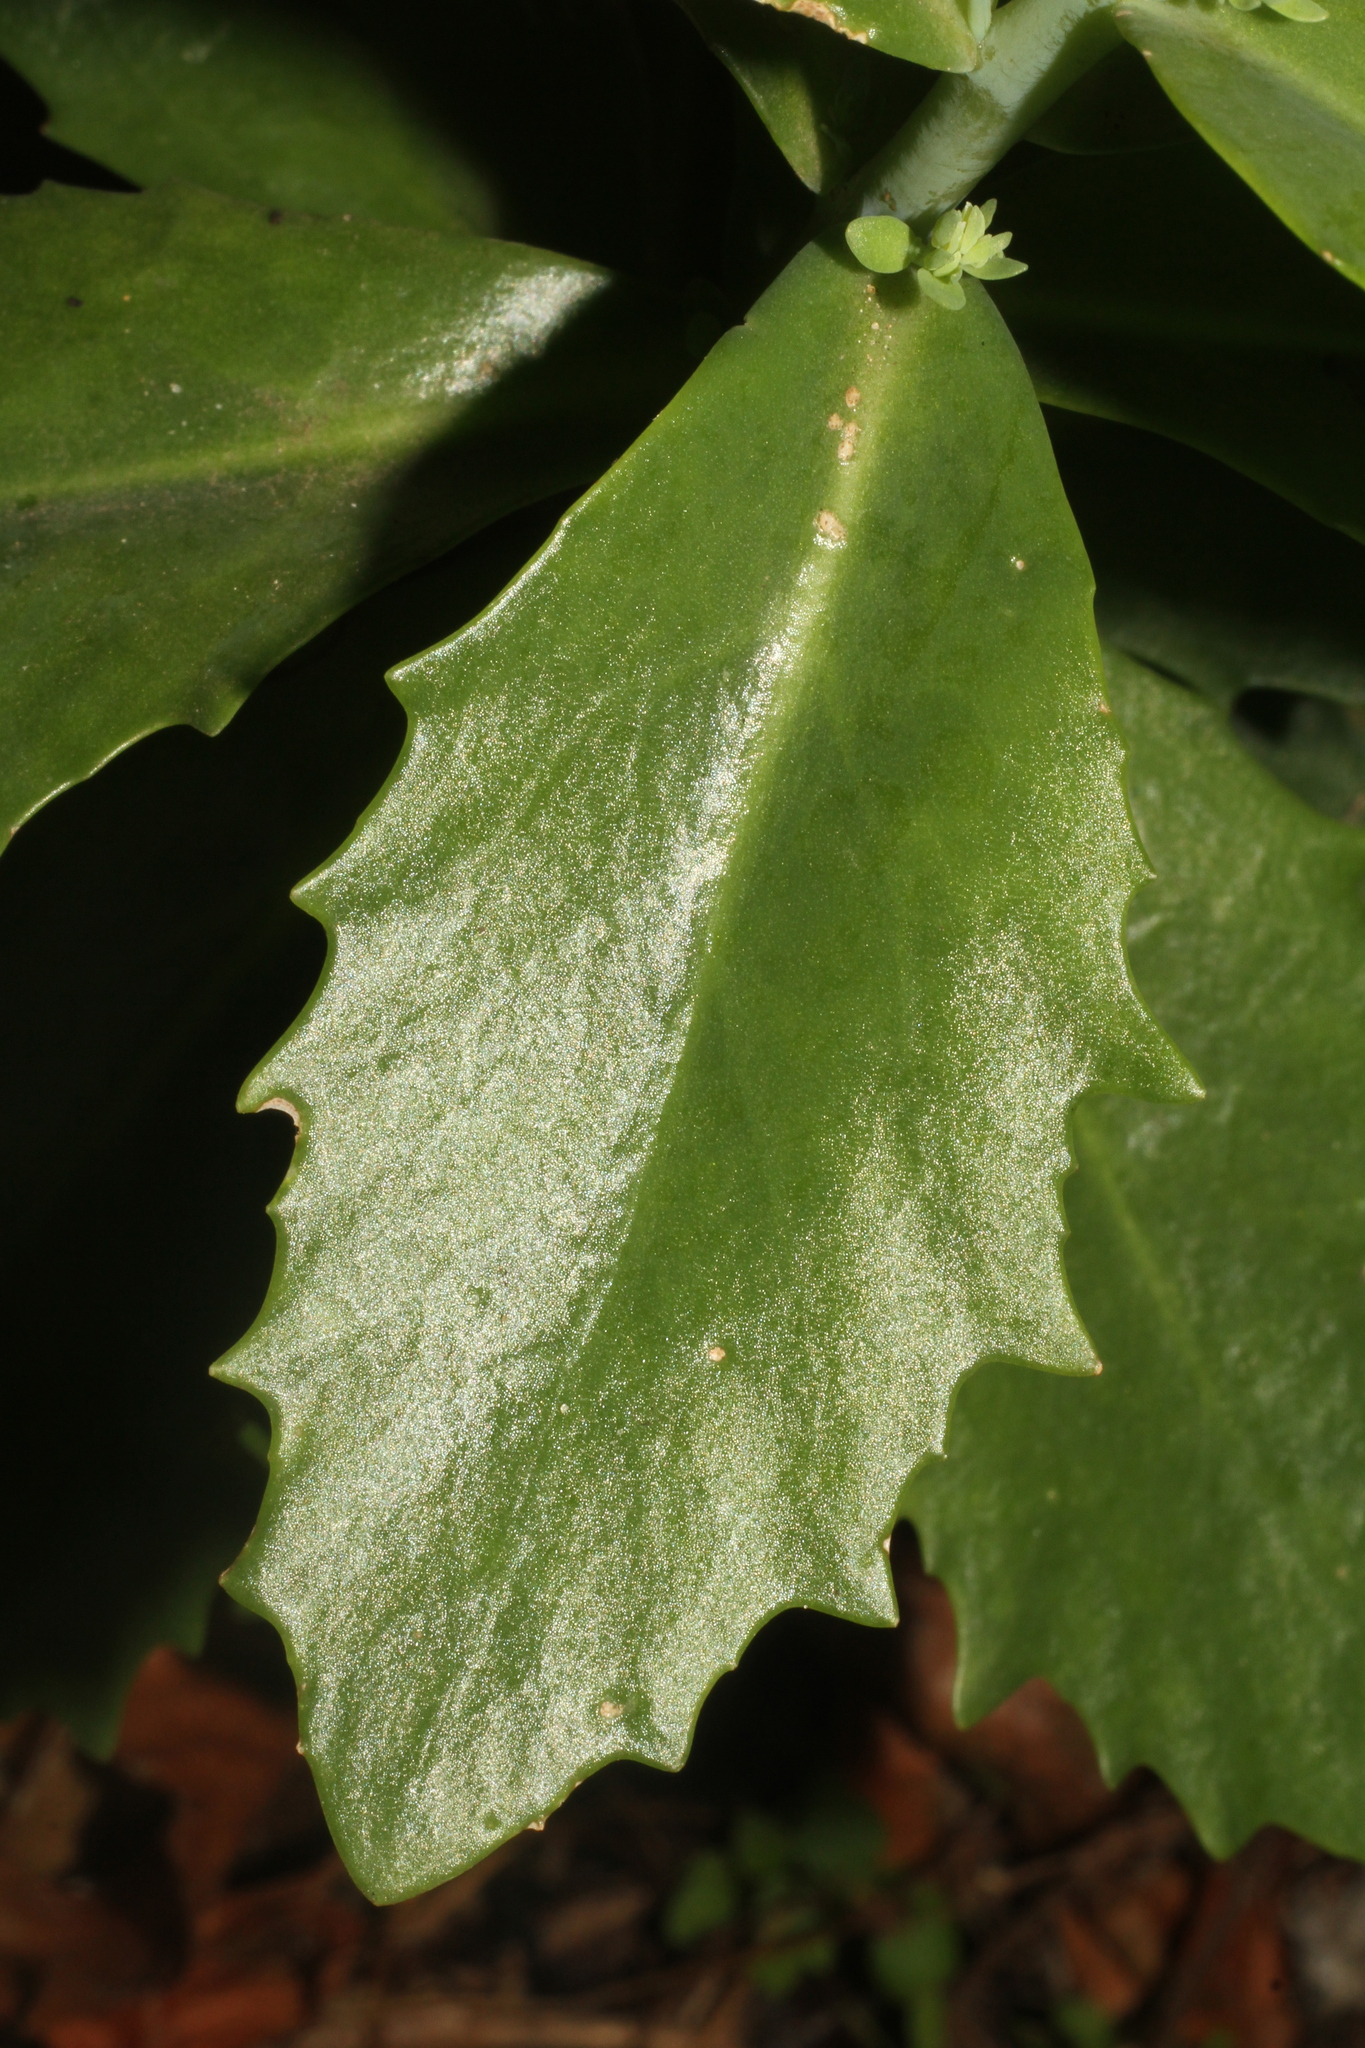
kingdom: Plantae
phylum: Tracheophyta
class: Magnoliopsida
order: Saxifragales
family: Crassulaceae
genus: Hylotelephium
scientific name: Hylotelephium
